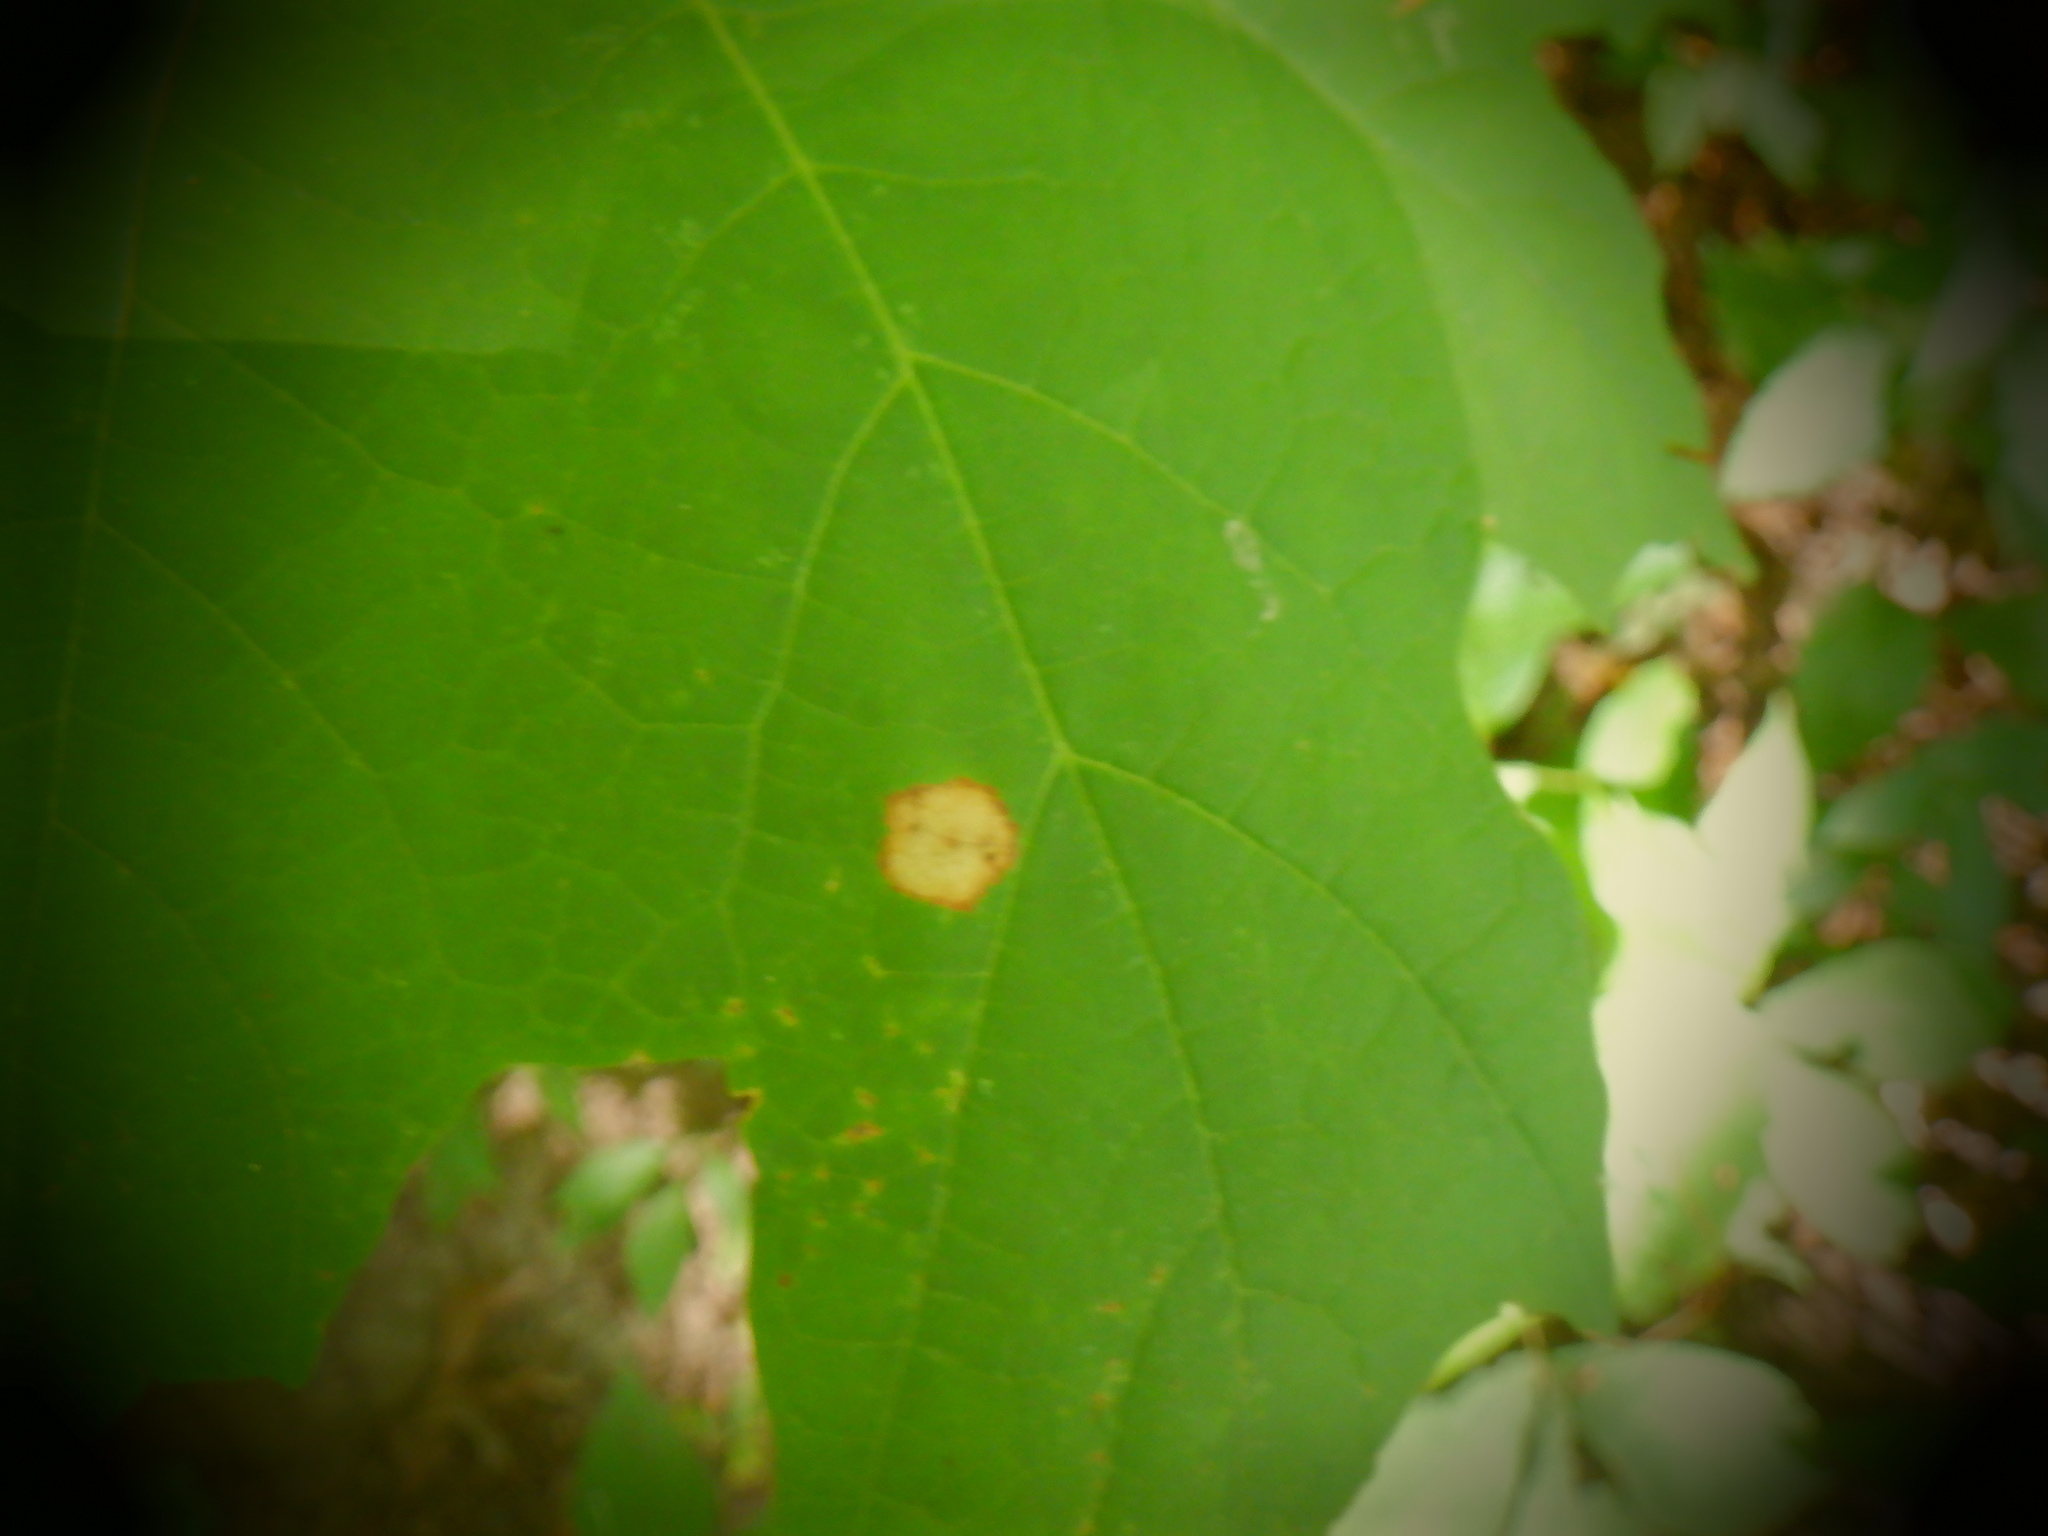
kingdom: Animalia
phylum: Arthropoda
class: Insecta
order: Diptera
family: Cecidomyiidae
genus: Acericecis
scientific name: Acericecis ocellaris
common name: Ocellate gall midge
